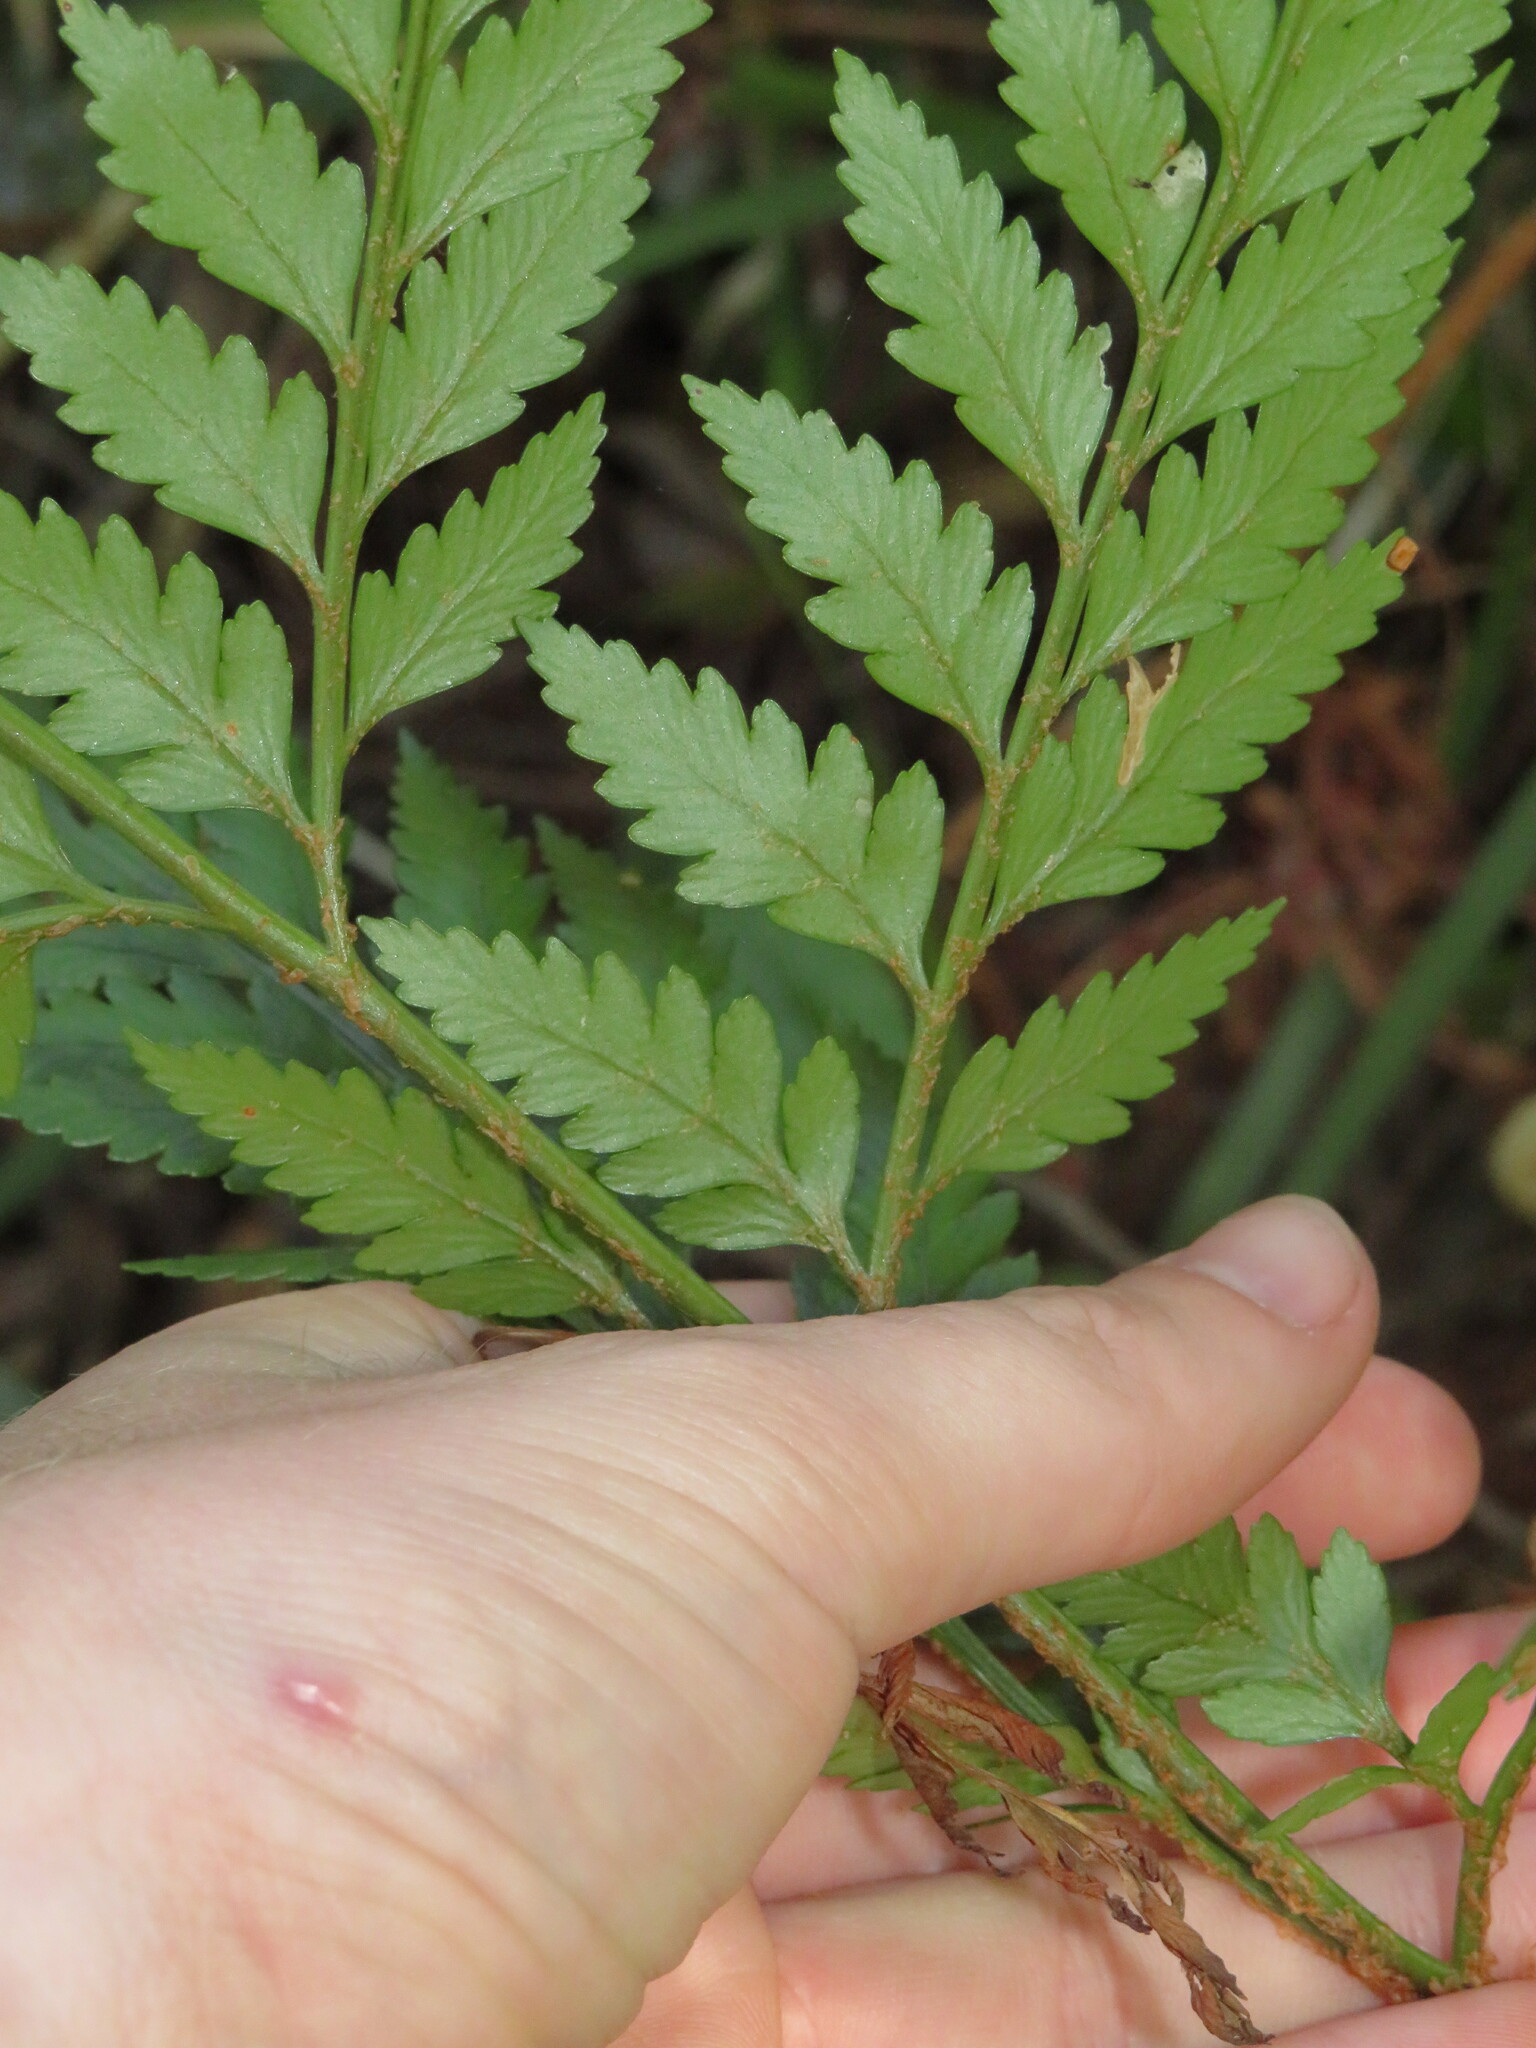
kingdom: Plantae
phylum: Tracheophyta
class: Polypodiopsida
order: Polypodiales
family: Dryopteridaceae
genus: Rumohra
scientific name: Rumohra adiantiformis
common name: Leather fern
